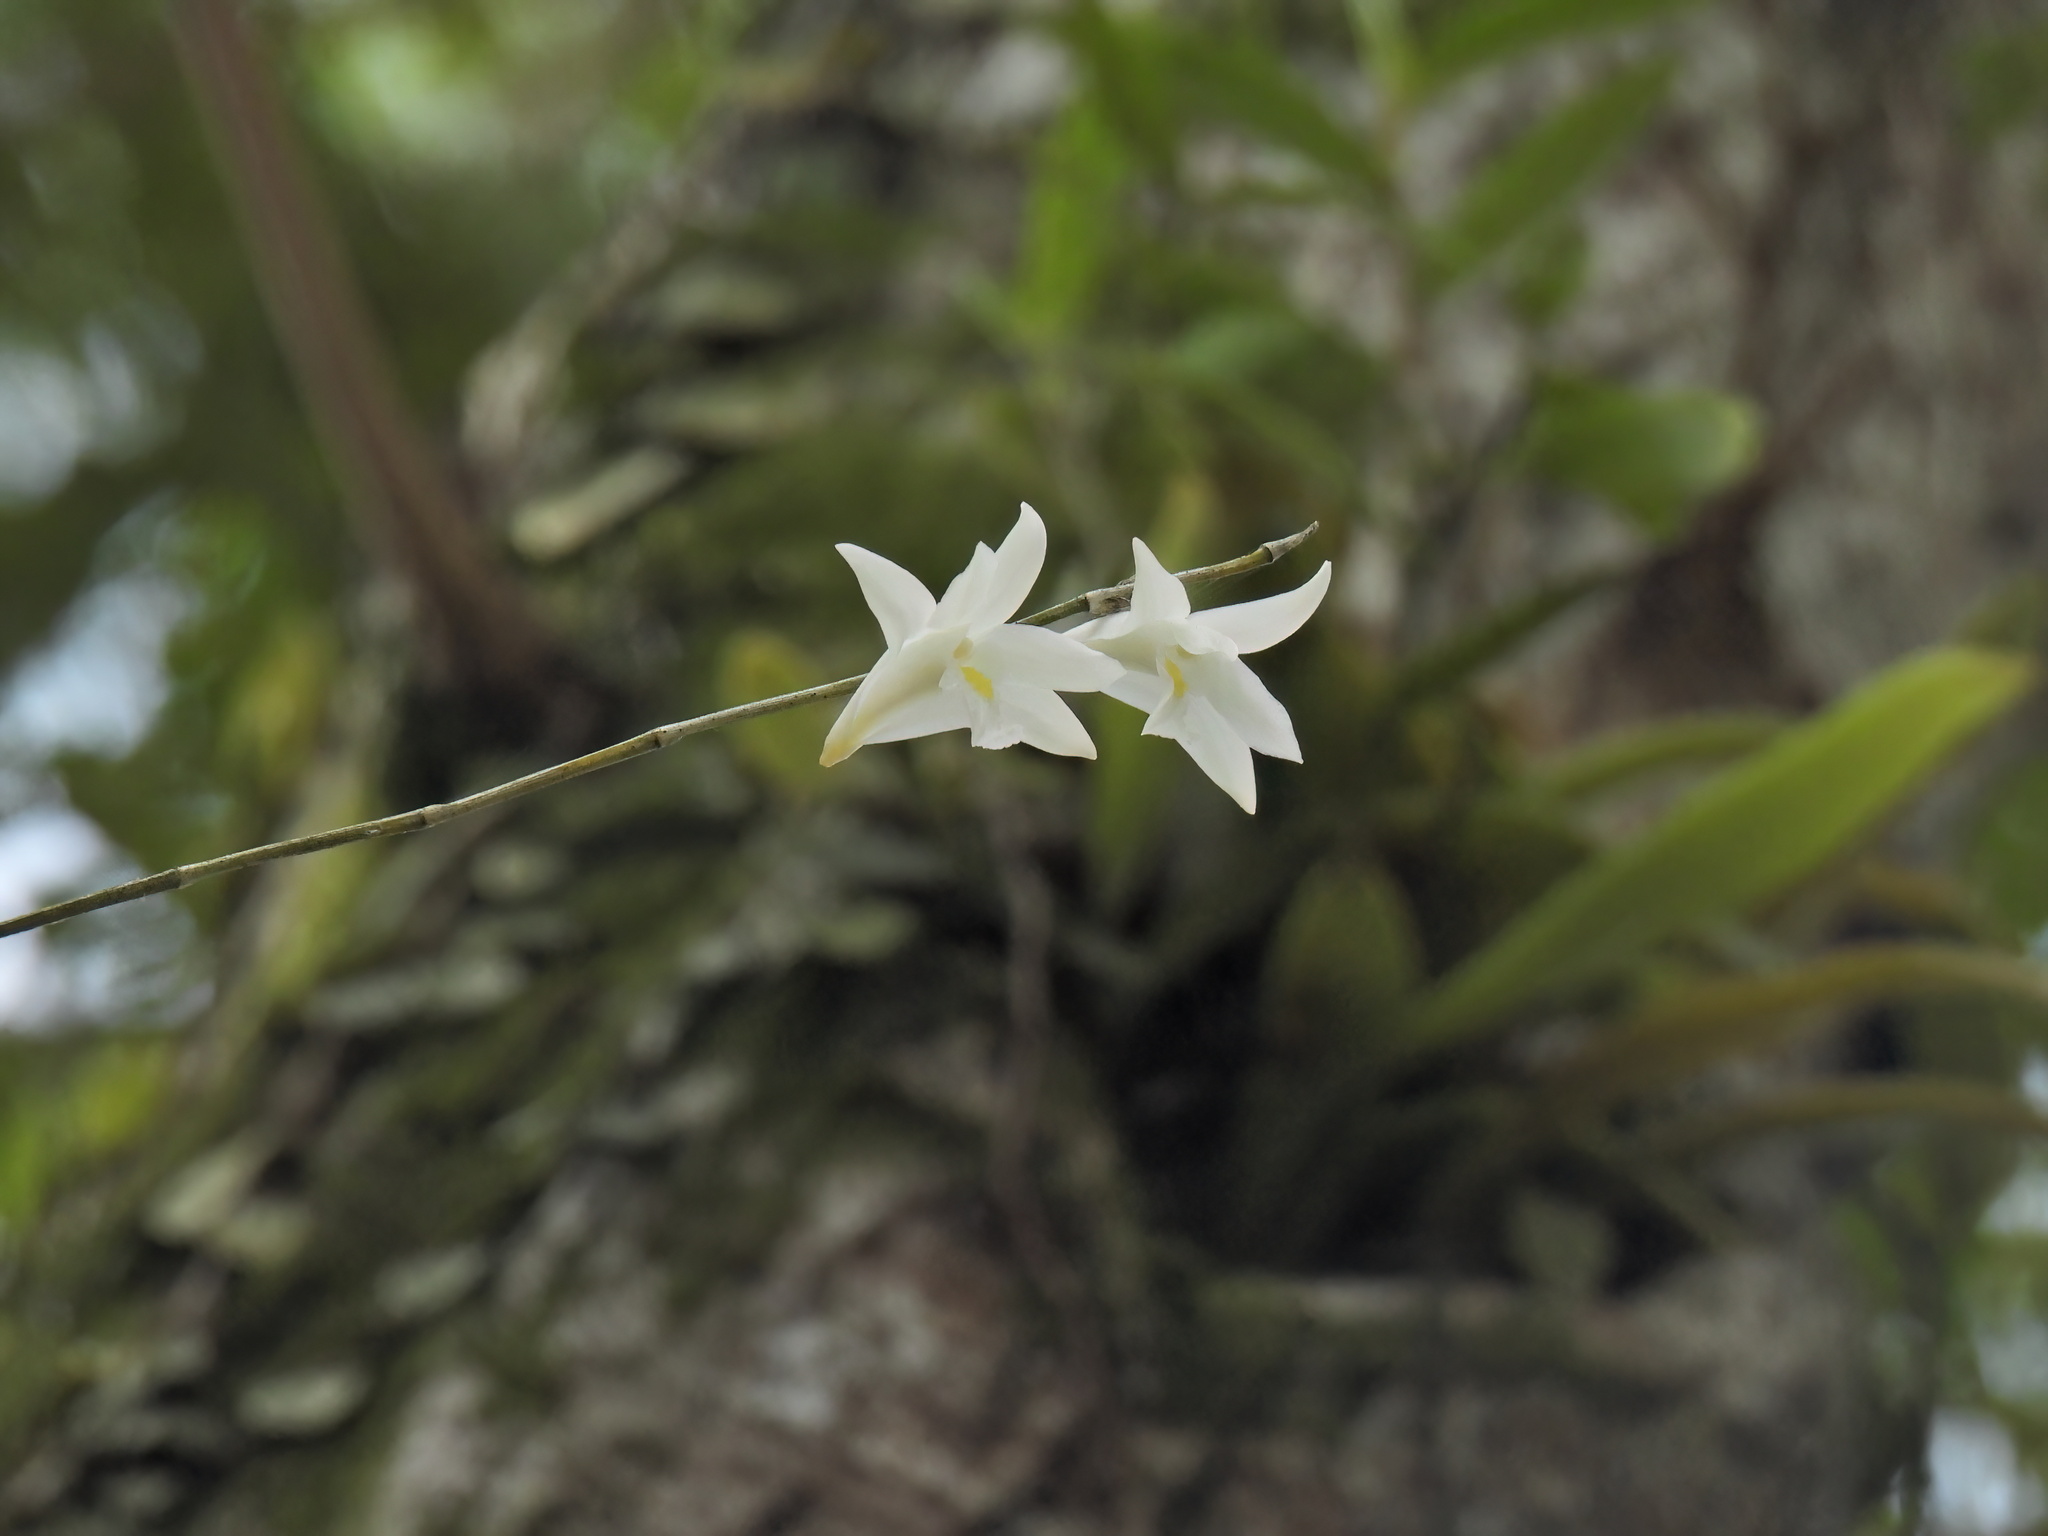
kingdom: Plantae
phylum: Tracheophyta
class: Liliopsida
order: Asparagales
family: Orchidaceae
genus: Dendrobium
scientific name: Dendrobium crumenatum
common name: Orchid
